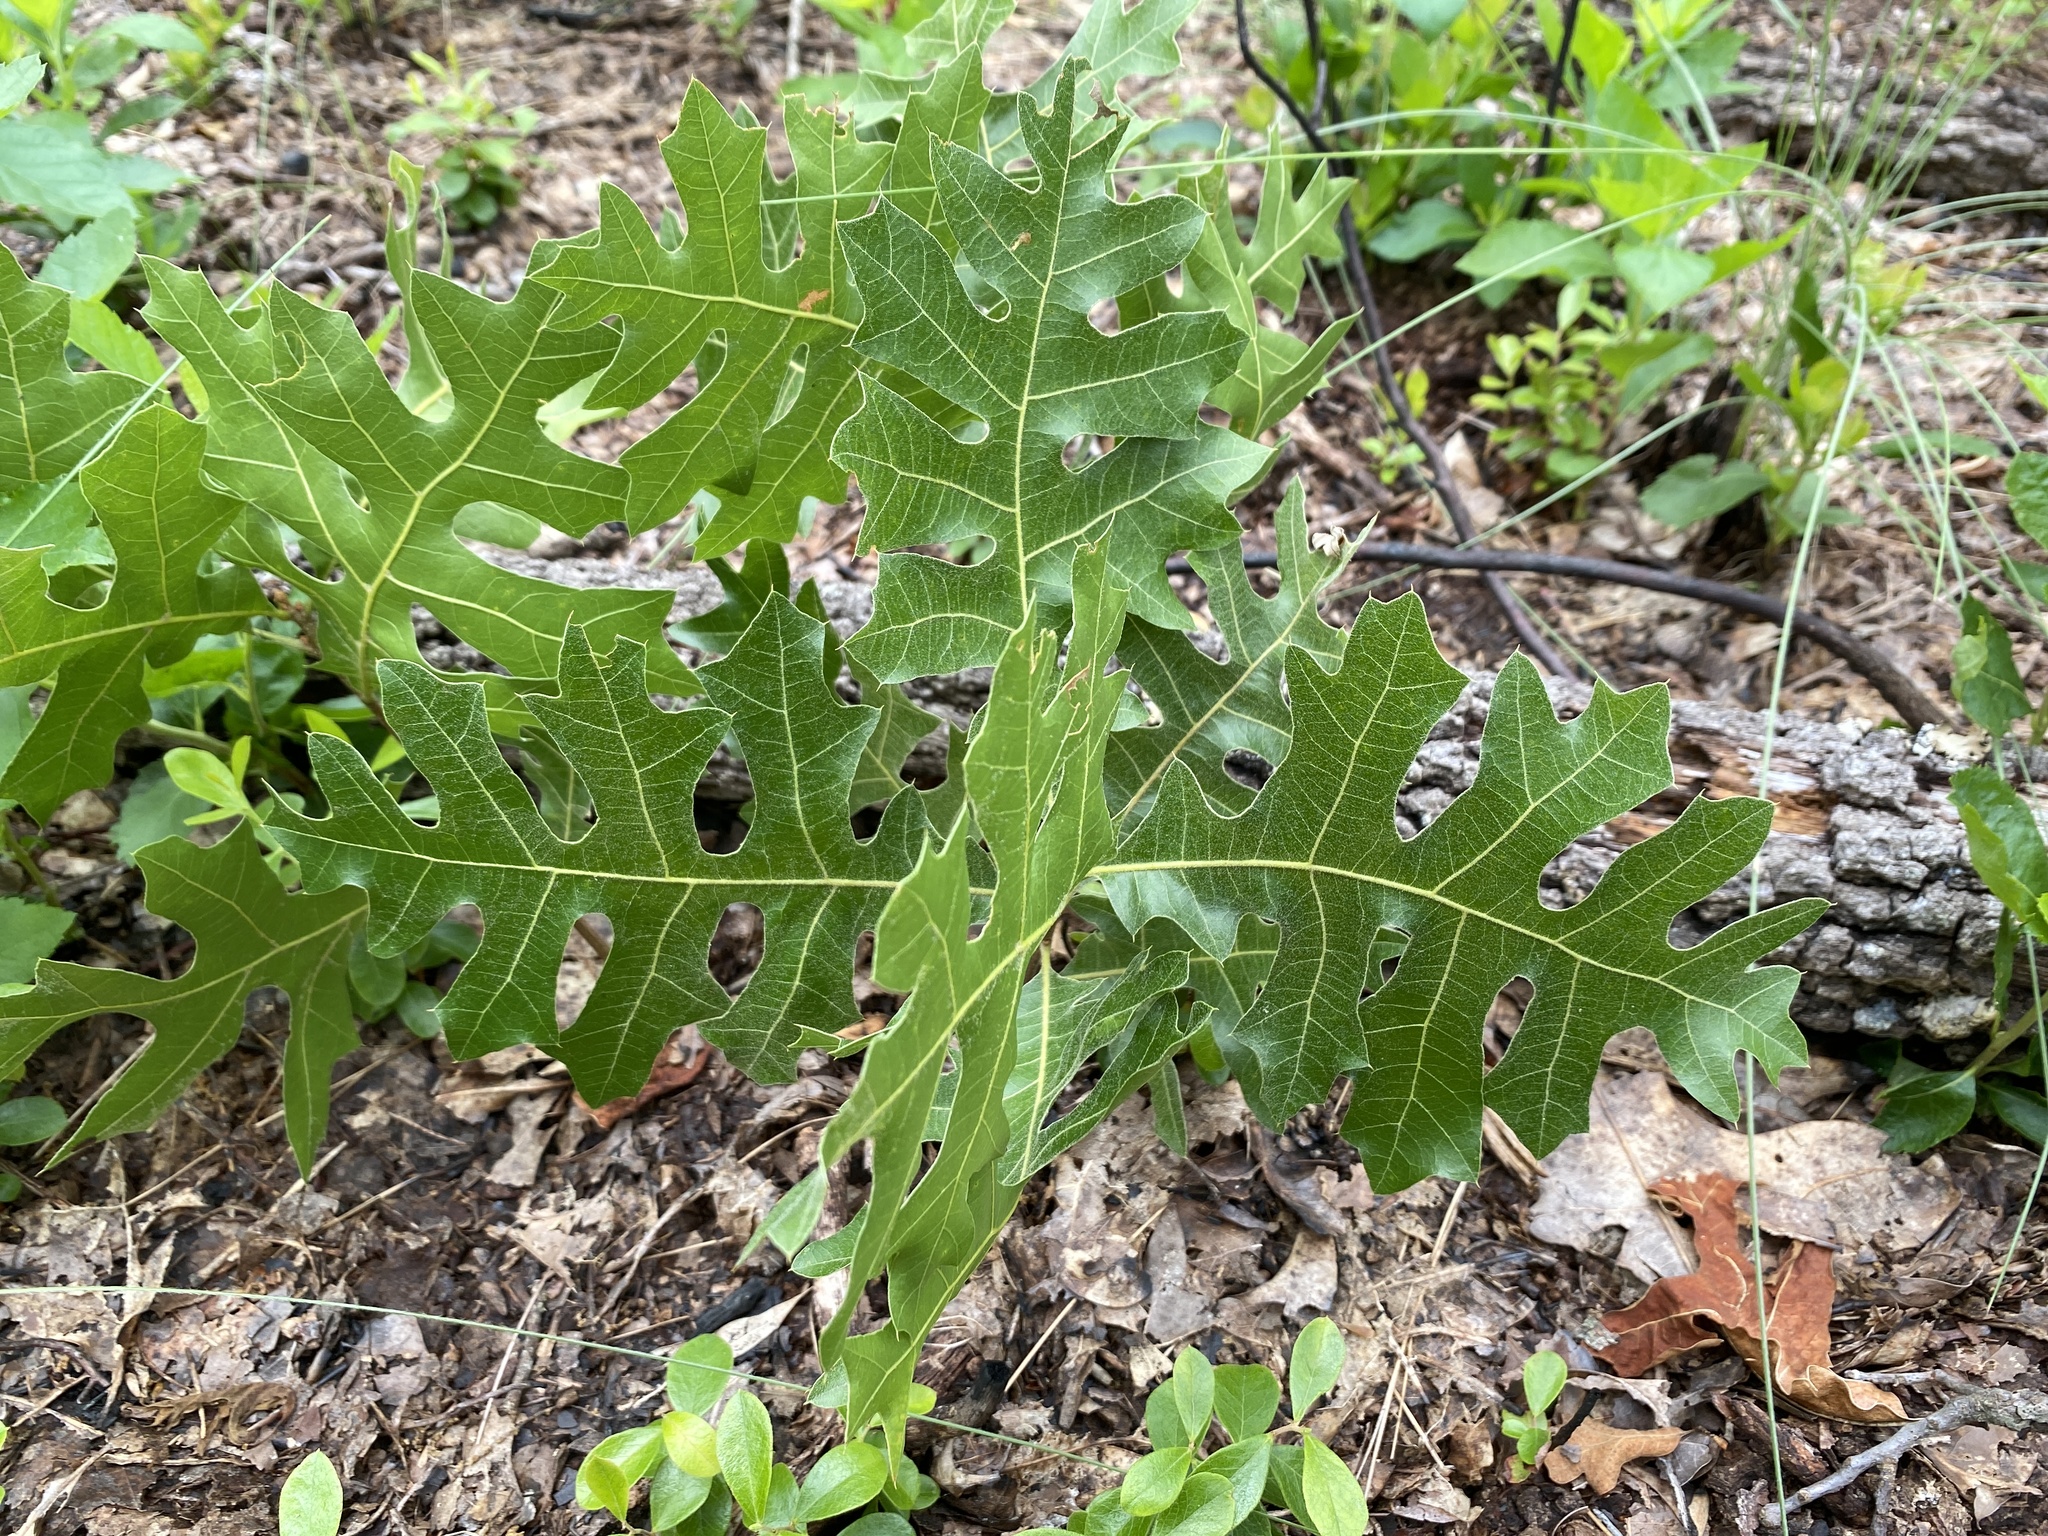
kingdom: Plantae
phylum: Tracheophyta
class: Magnoliopsida
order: Fagales
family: Fagaceae
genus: Quercus
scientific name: Quercus laevis
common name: Turkey oak
